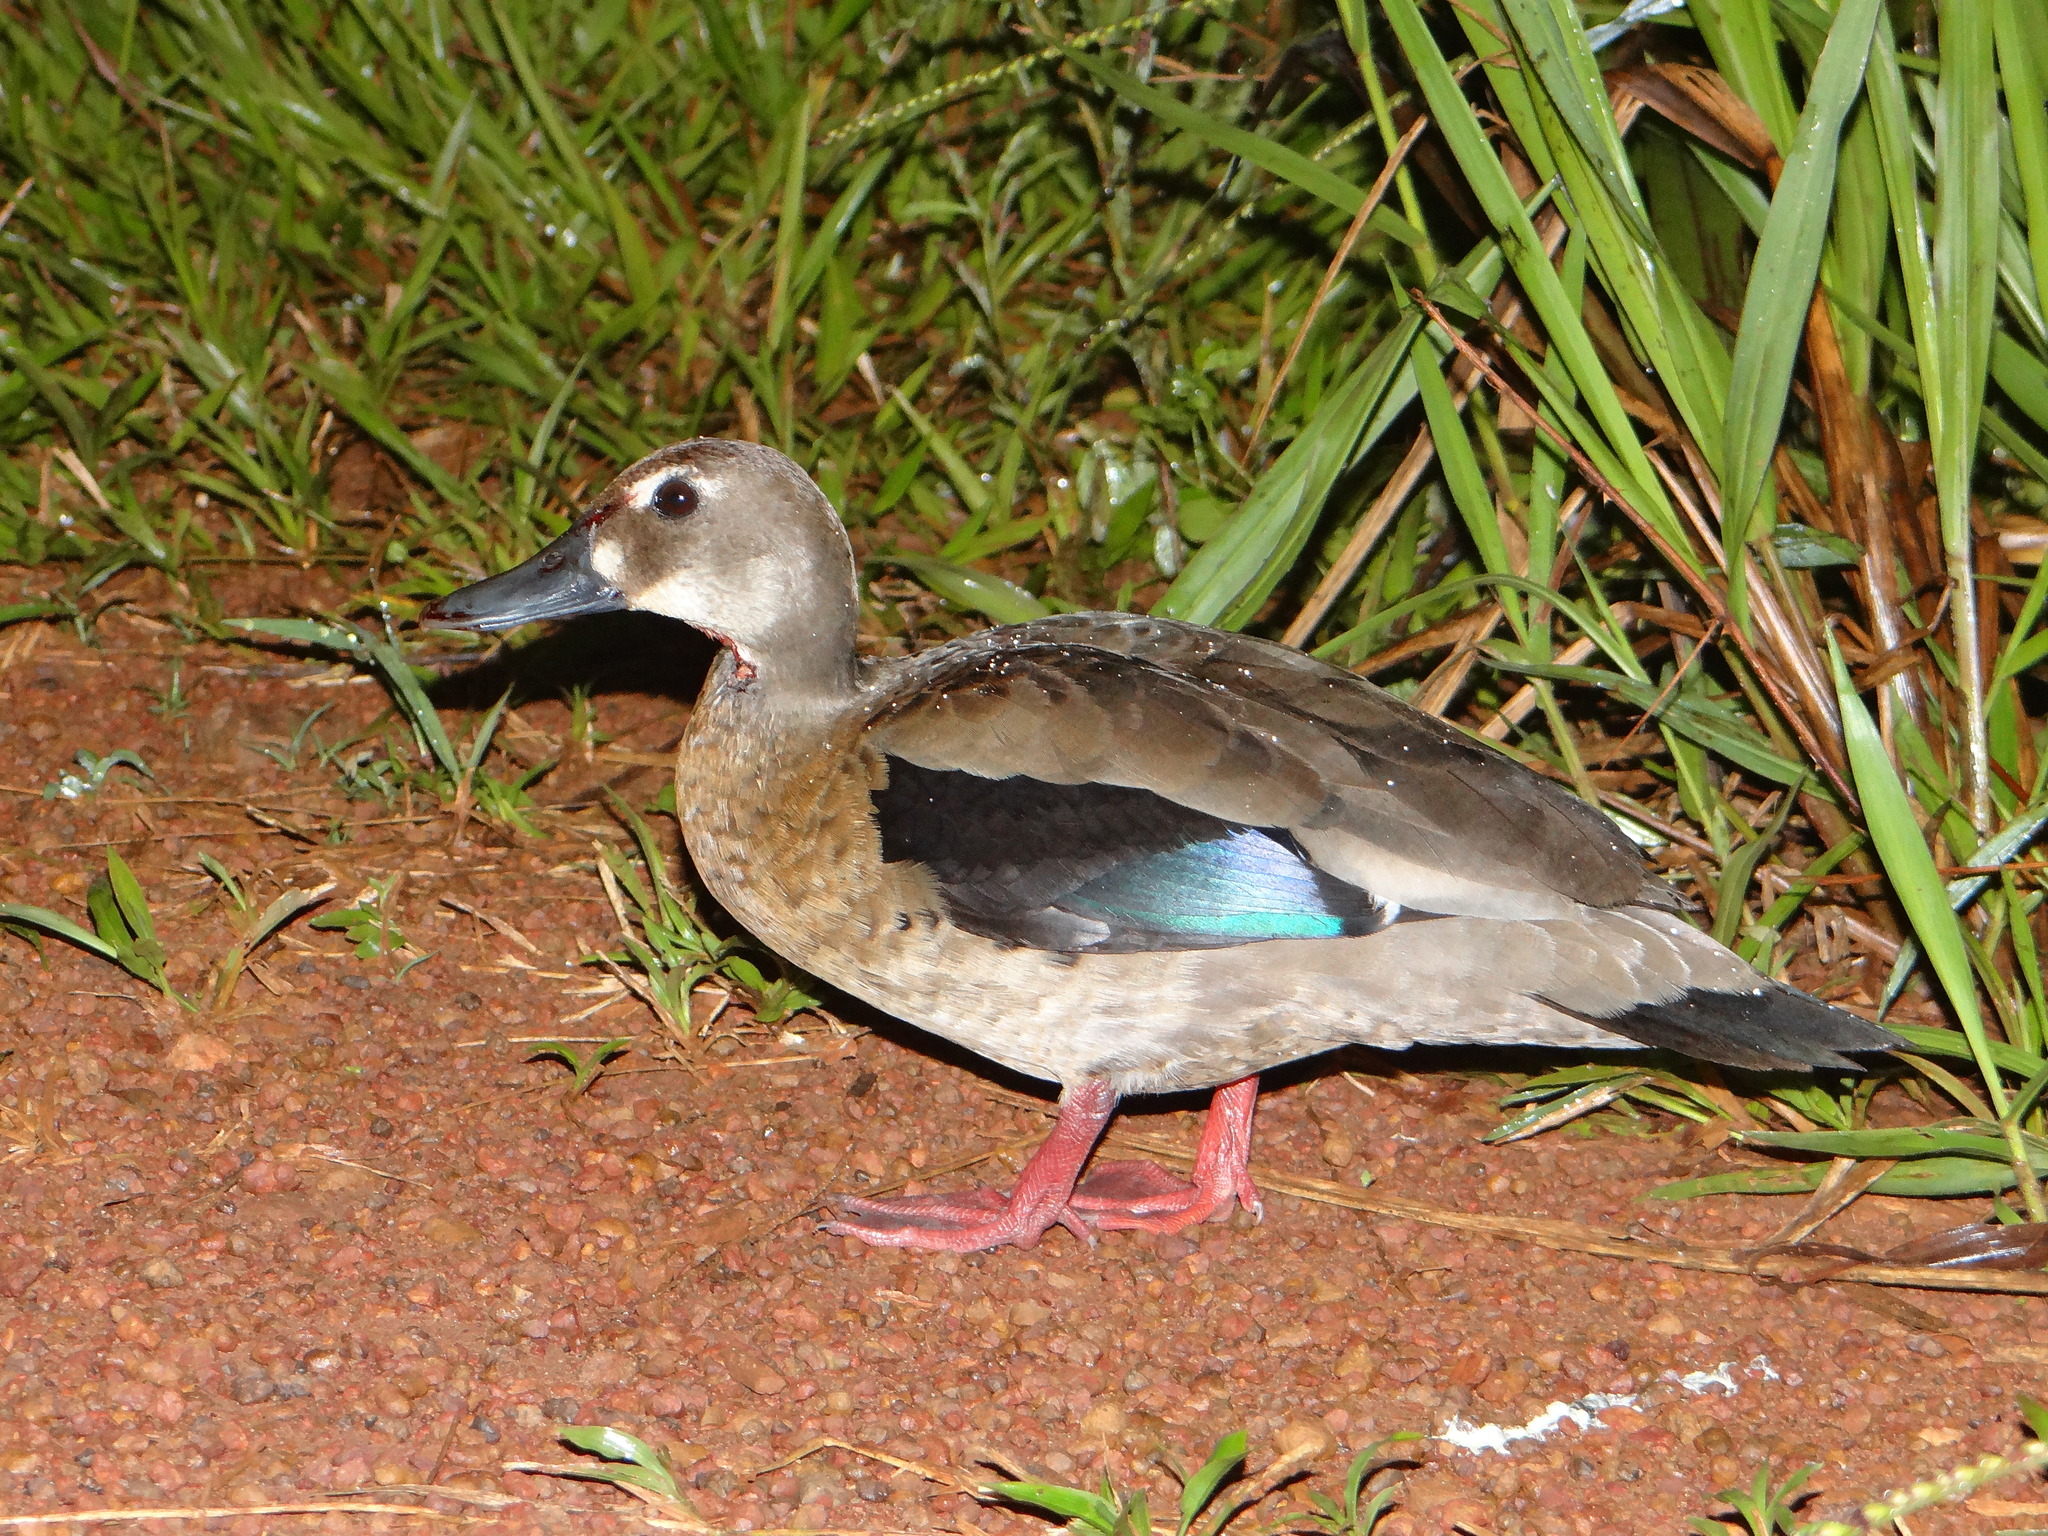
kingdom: Animalia
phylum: Chordata
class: Aves
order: Anseriformes
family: Anatidae
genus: Amazonetta
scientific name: Amazonetta brasiliensis
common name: Brazilian teal
